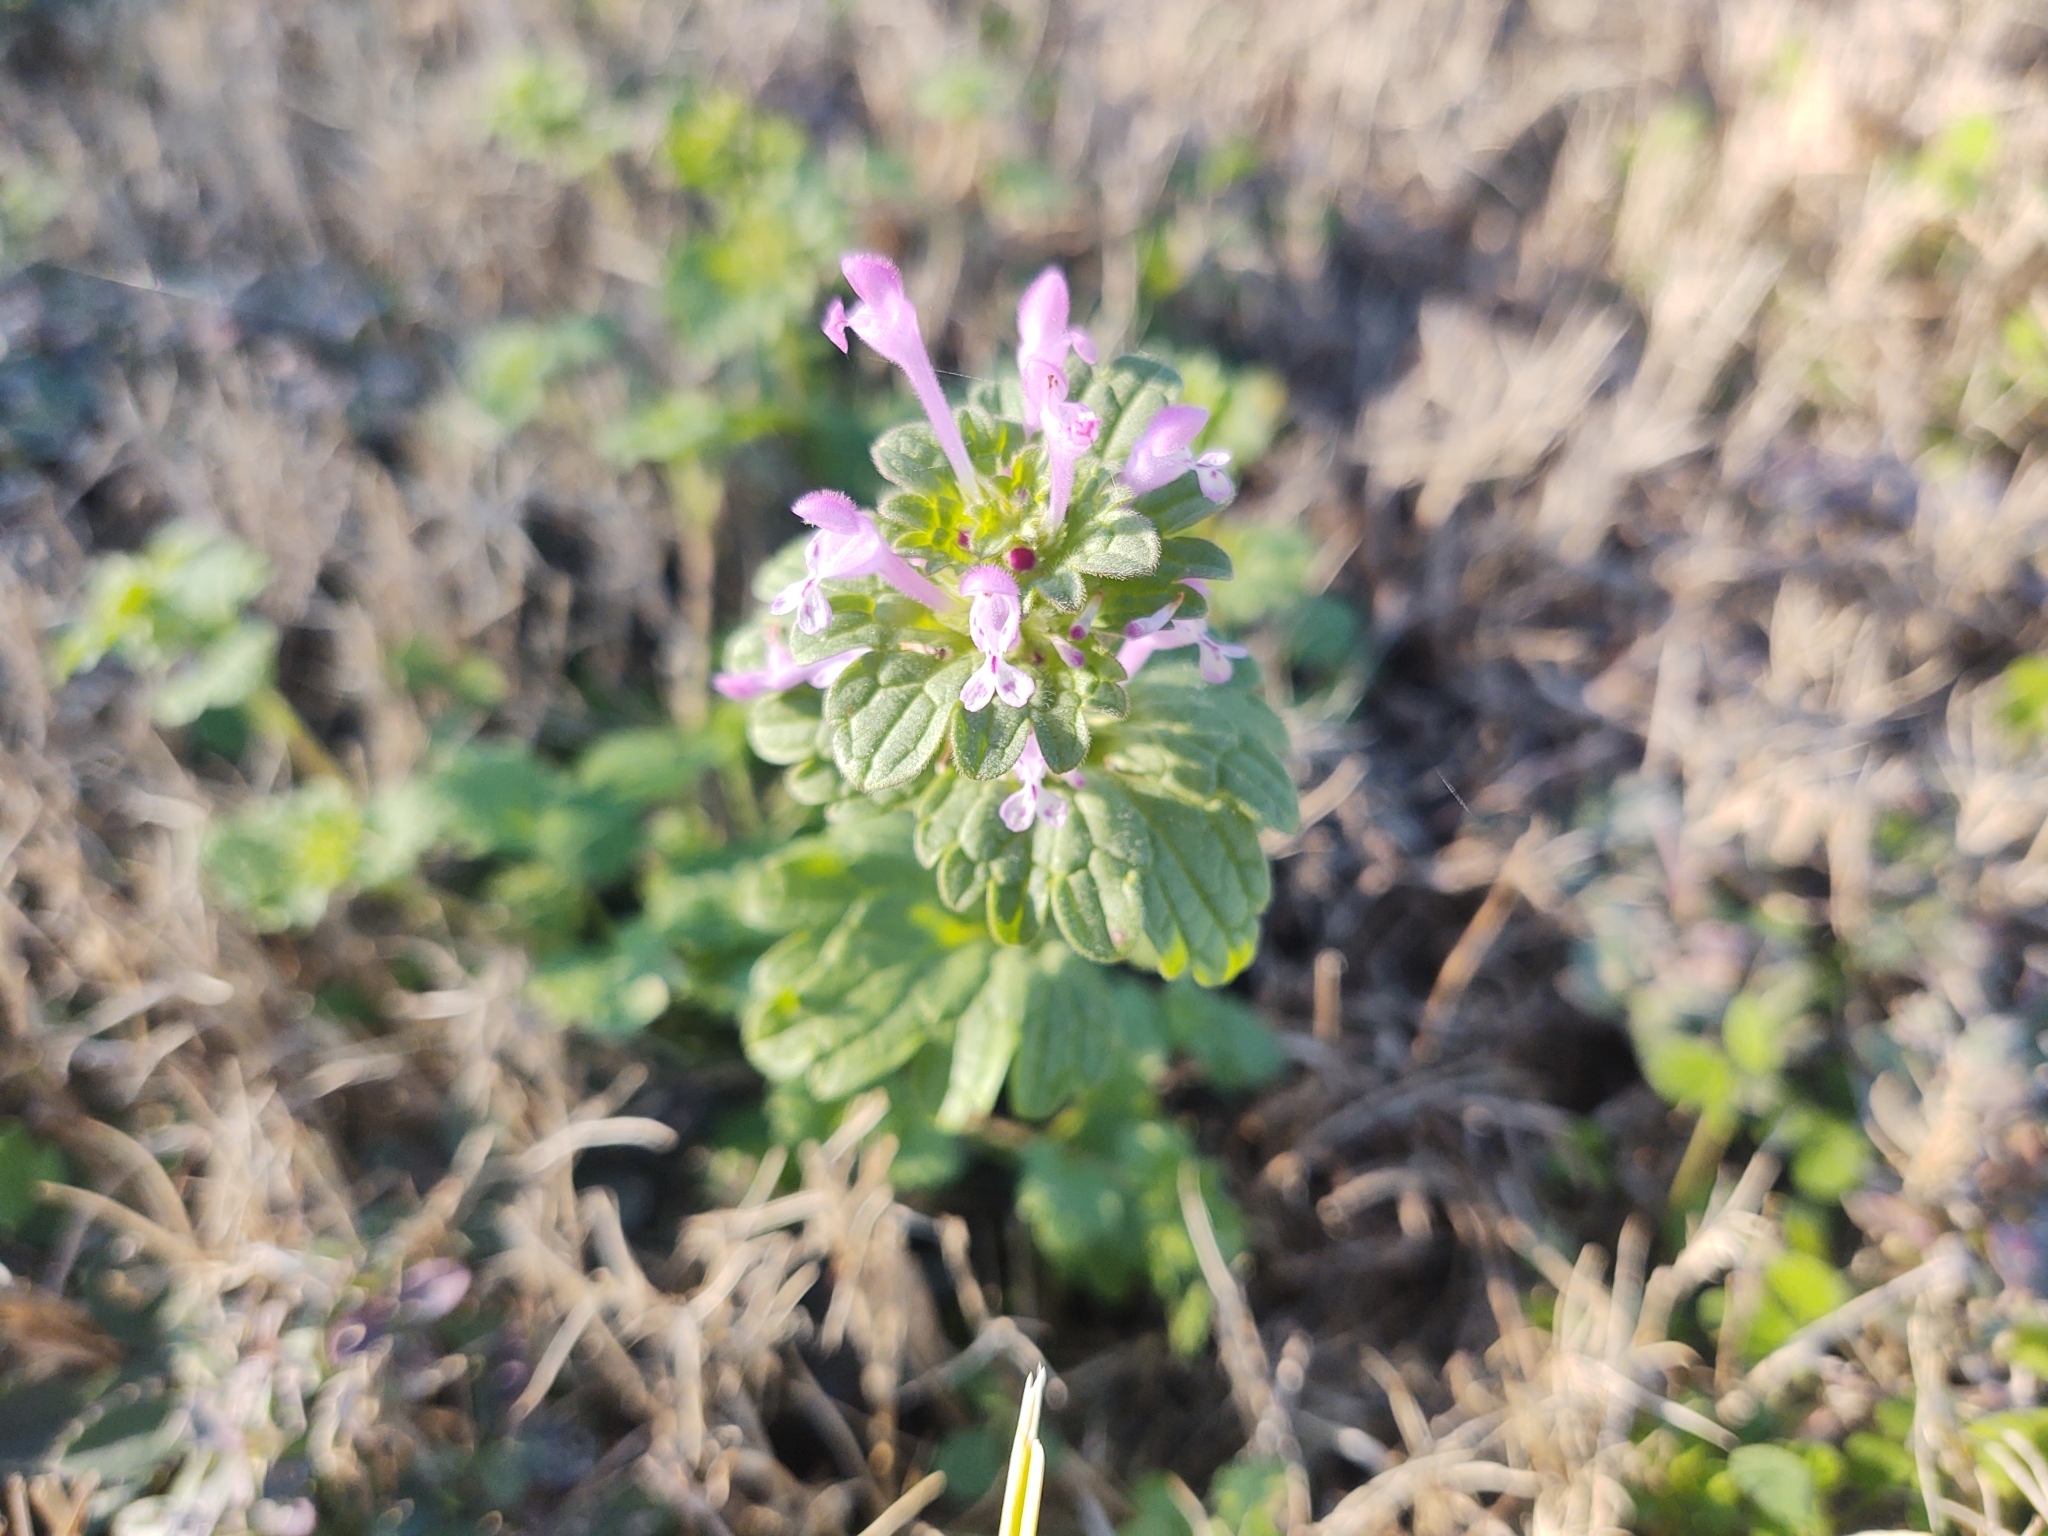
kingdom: Plantae
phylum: Tracheophyta
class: Magnoliopsida
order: Lamiales
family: Lamiaceae
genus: Lamium
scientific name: Lamium amplexicaule
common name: Henbit dead-nettle
